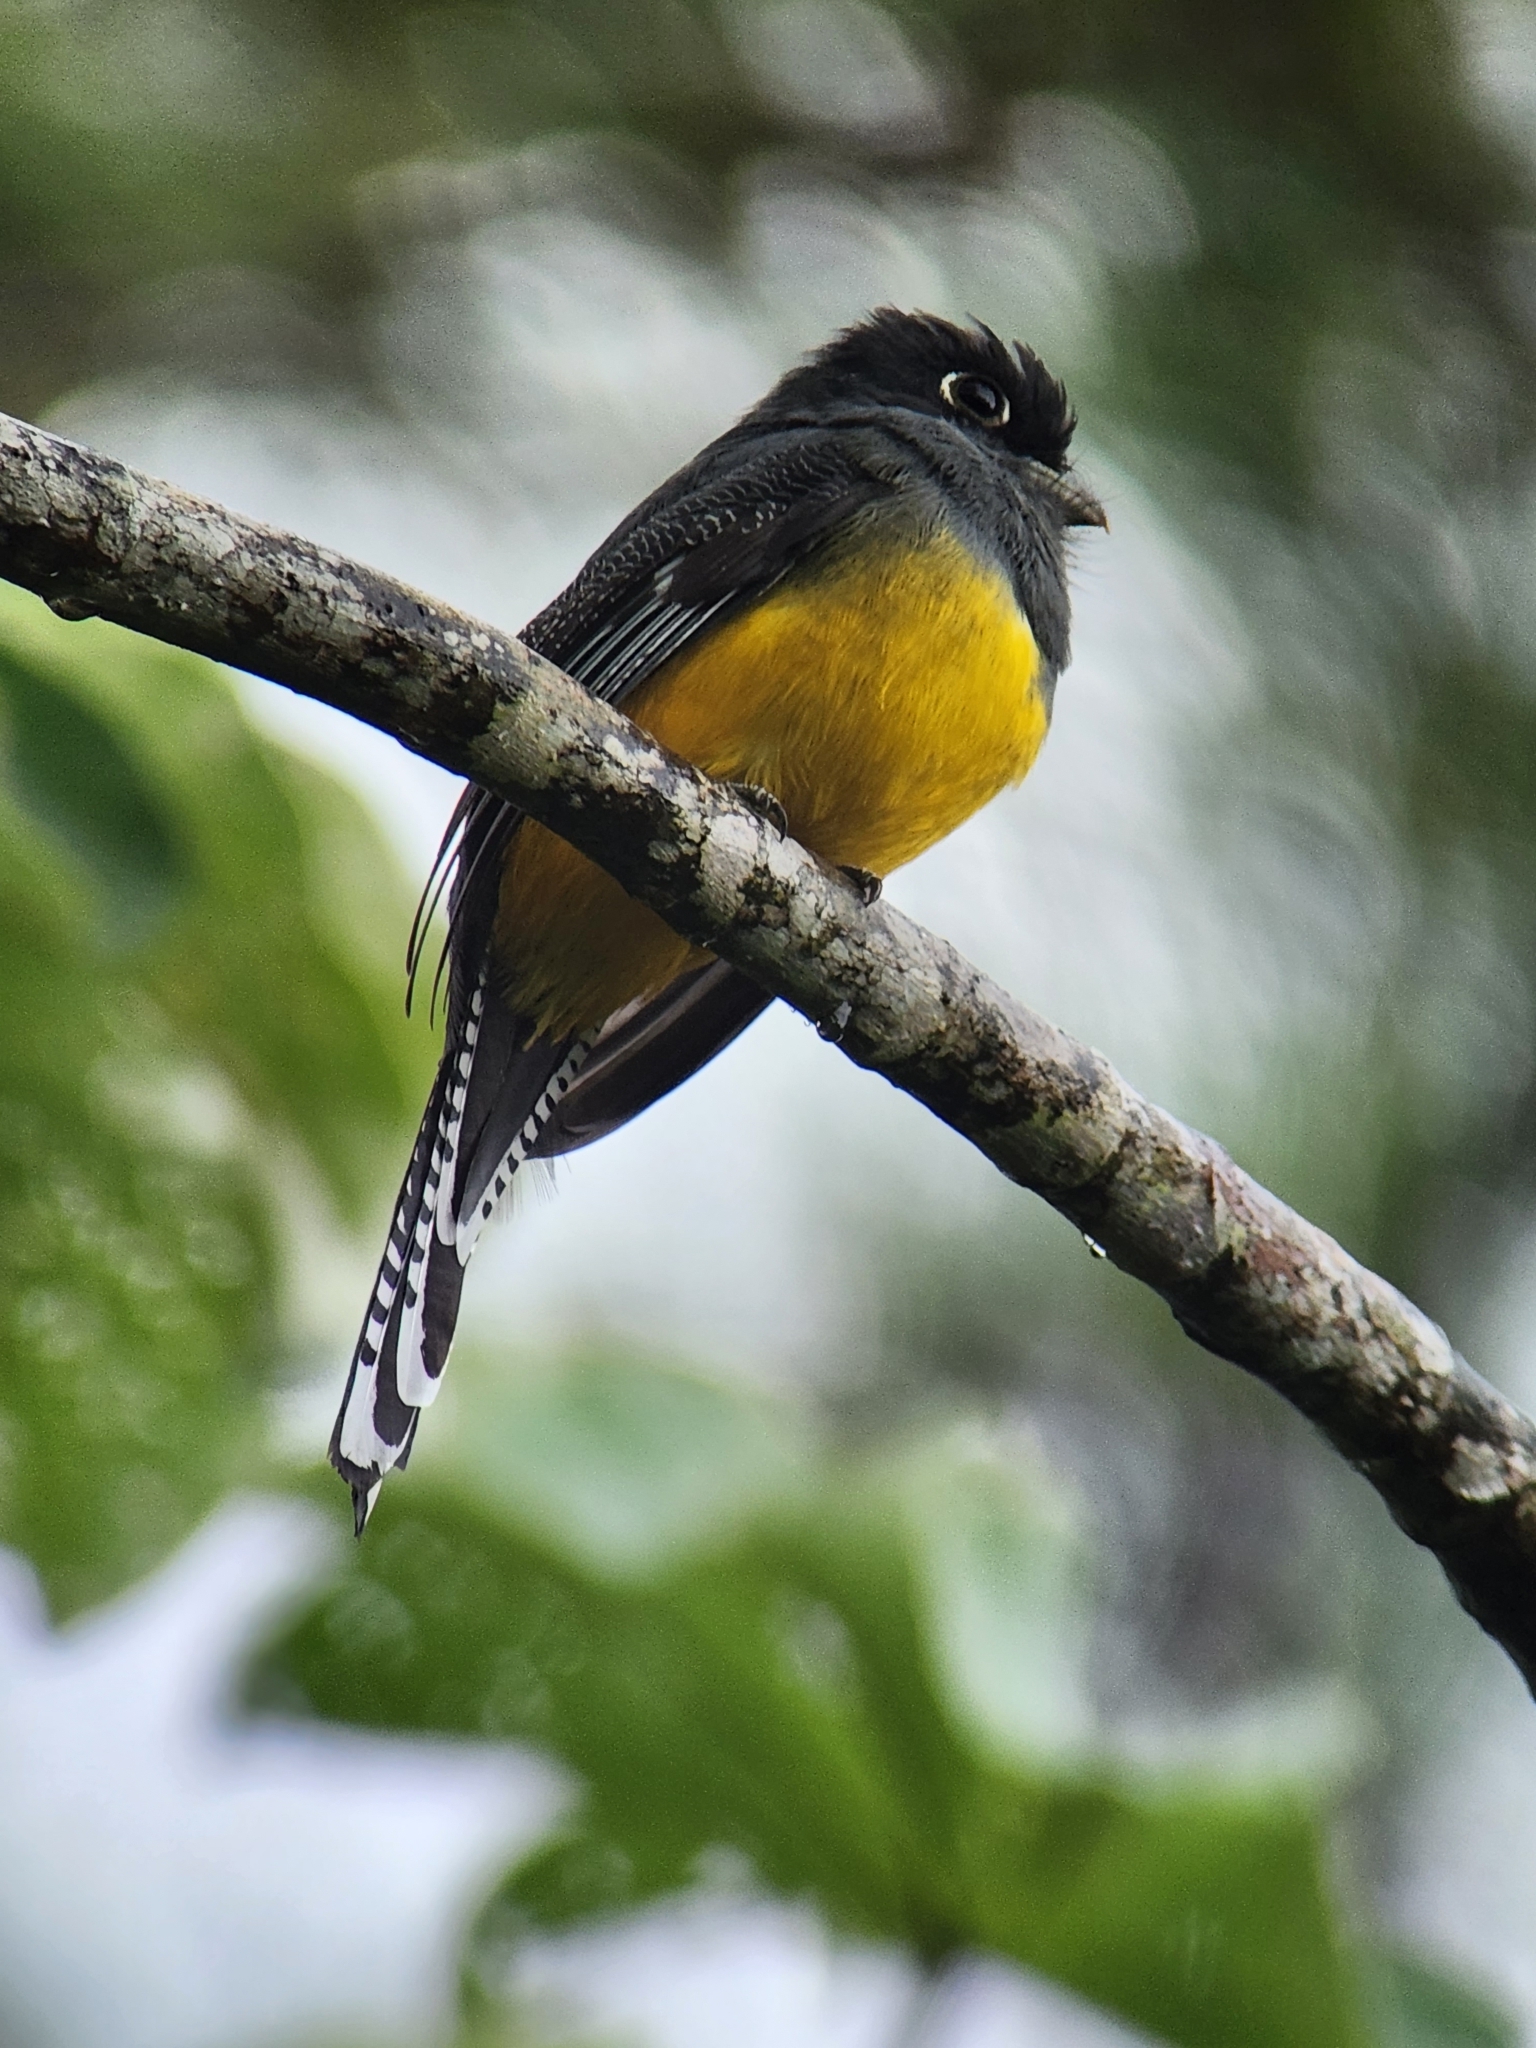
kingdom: Animalia
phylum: Chordata
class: Aves
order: Trogoniformes
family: Trogonidae
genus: Trogon
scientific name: Trogon caligatus
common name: Gartered trogon
